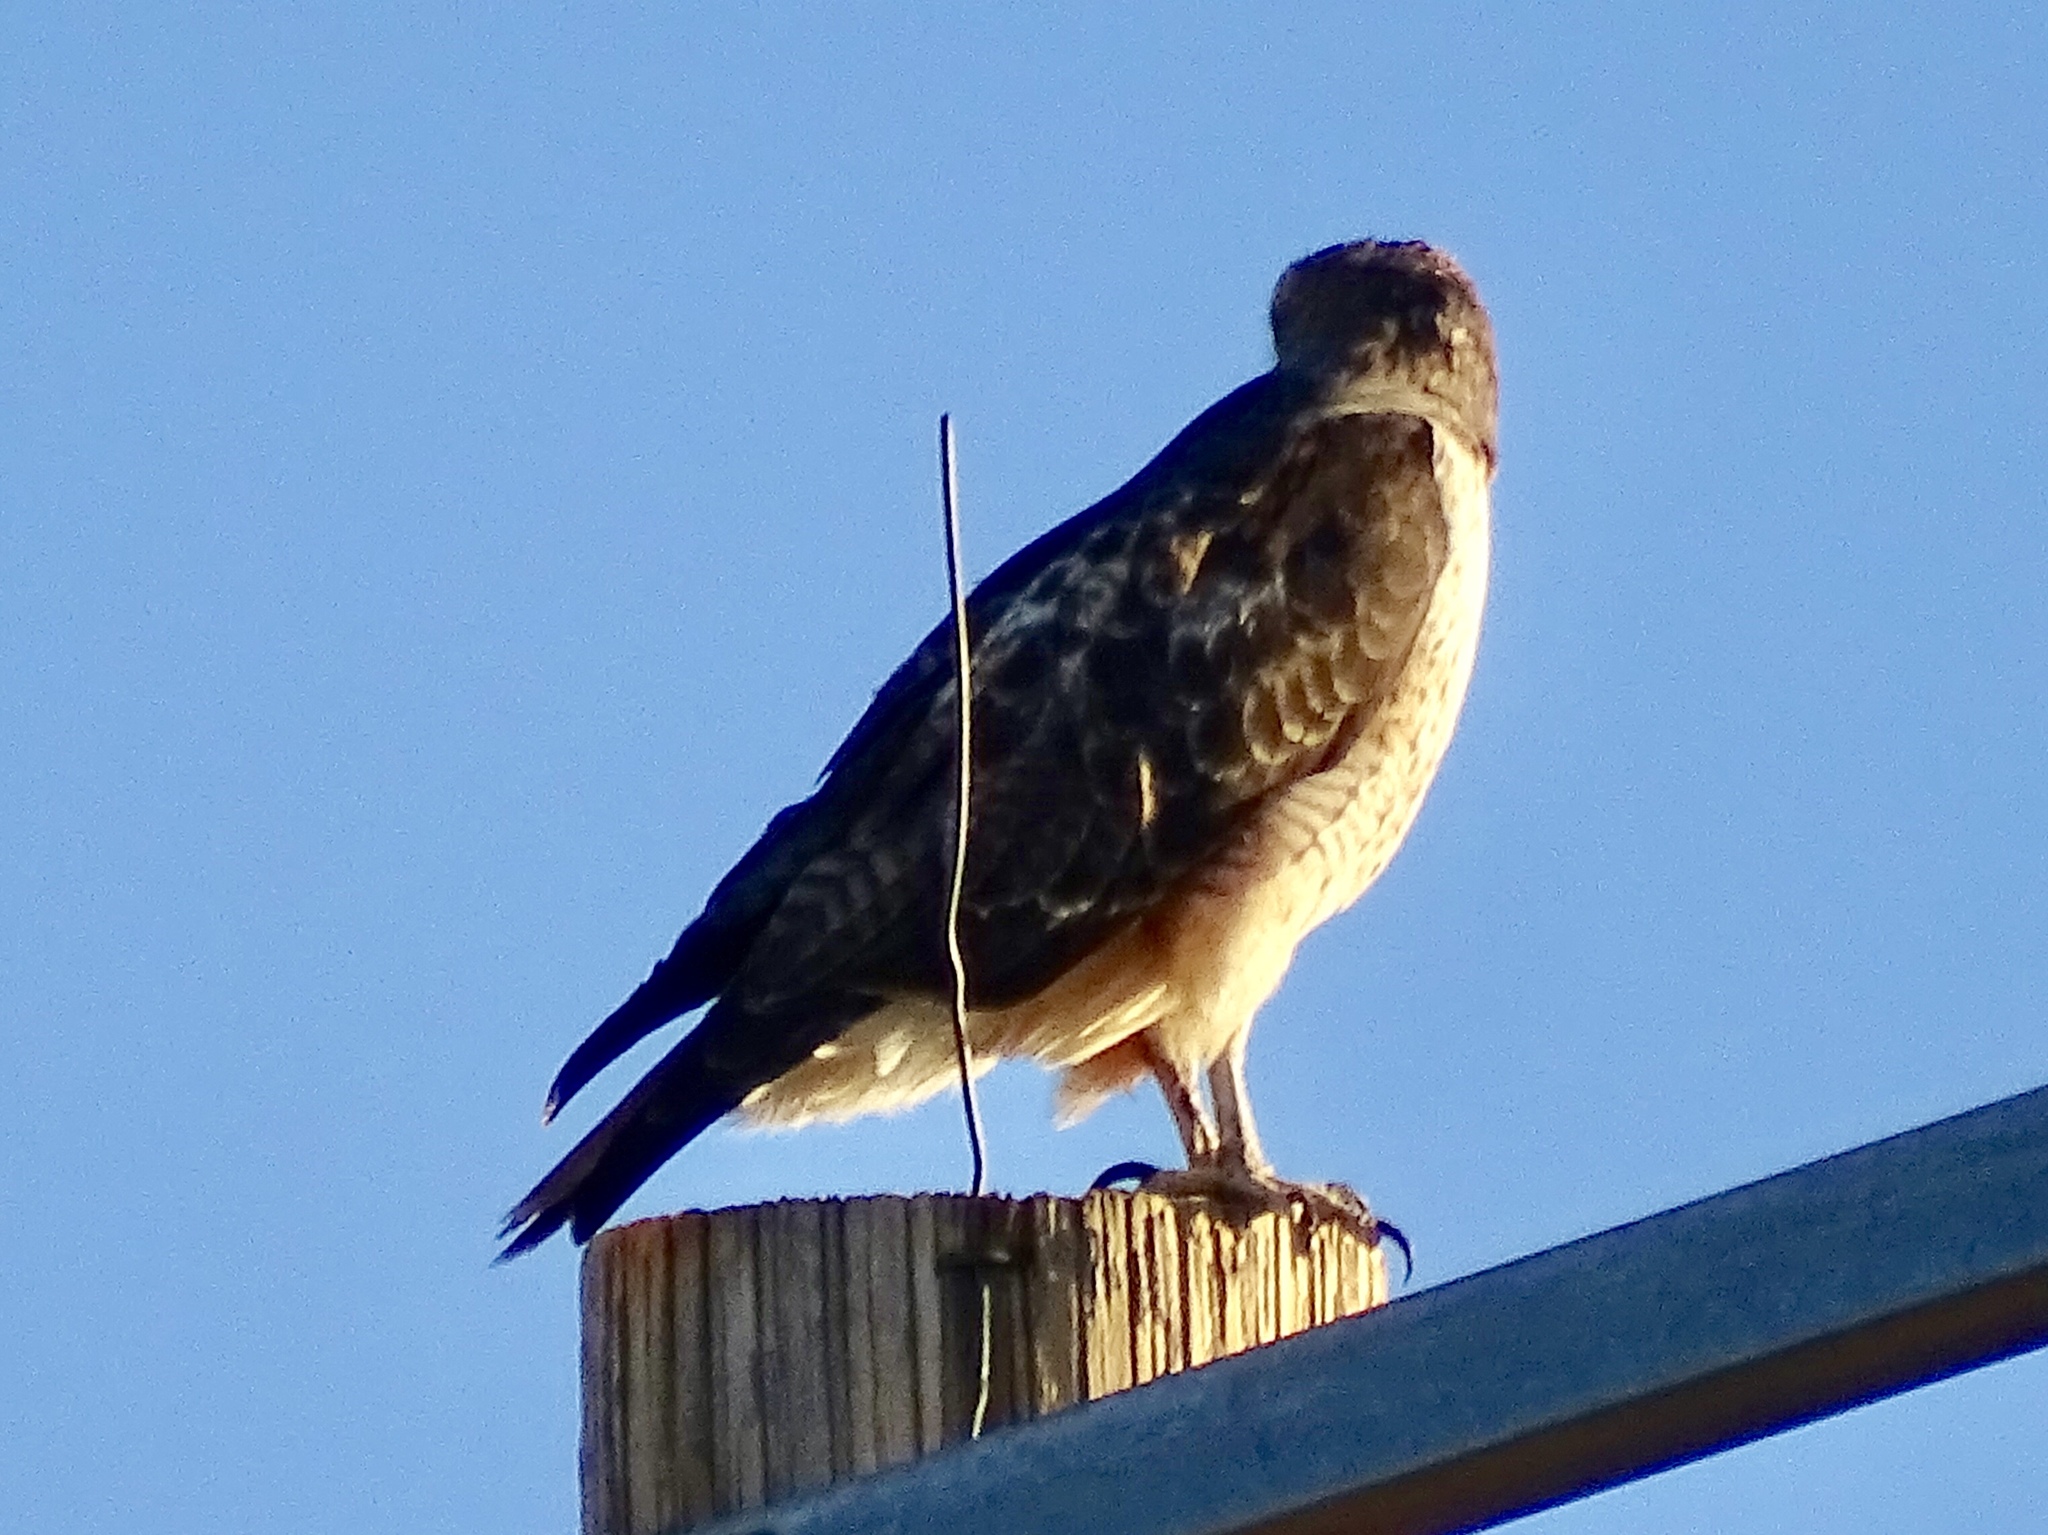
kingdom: Animalia
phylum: Chordata
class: Aves
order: Accipitriformes
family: Accipitridae
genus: Buteo
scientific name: Buteo jamaicensis
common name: Red-tailed hawk
